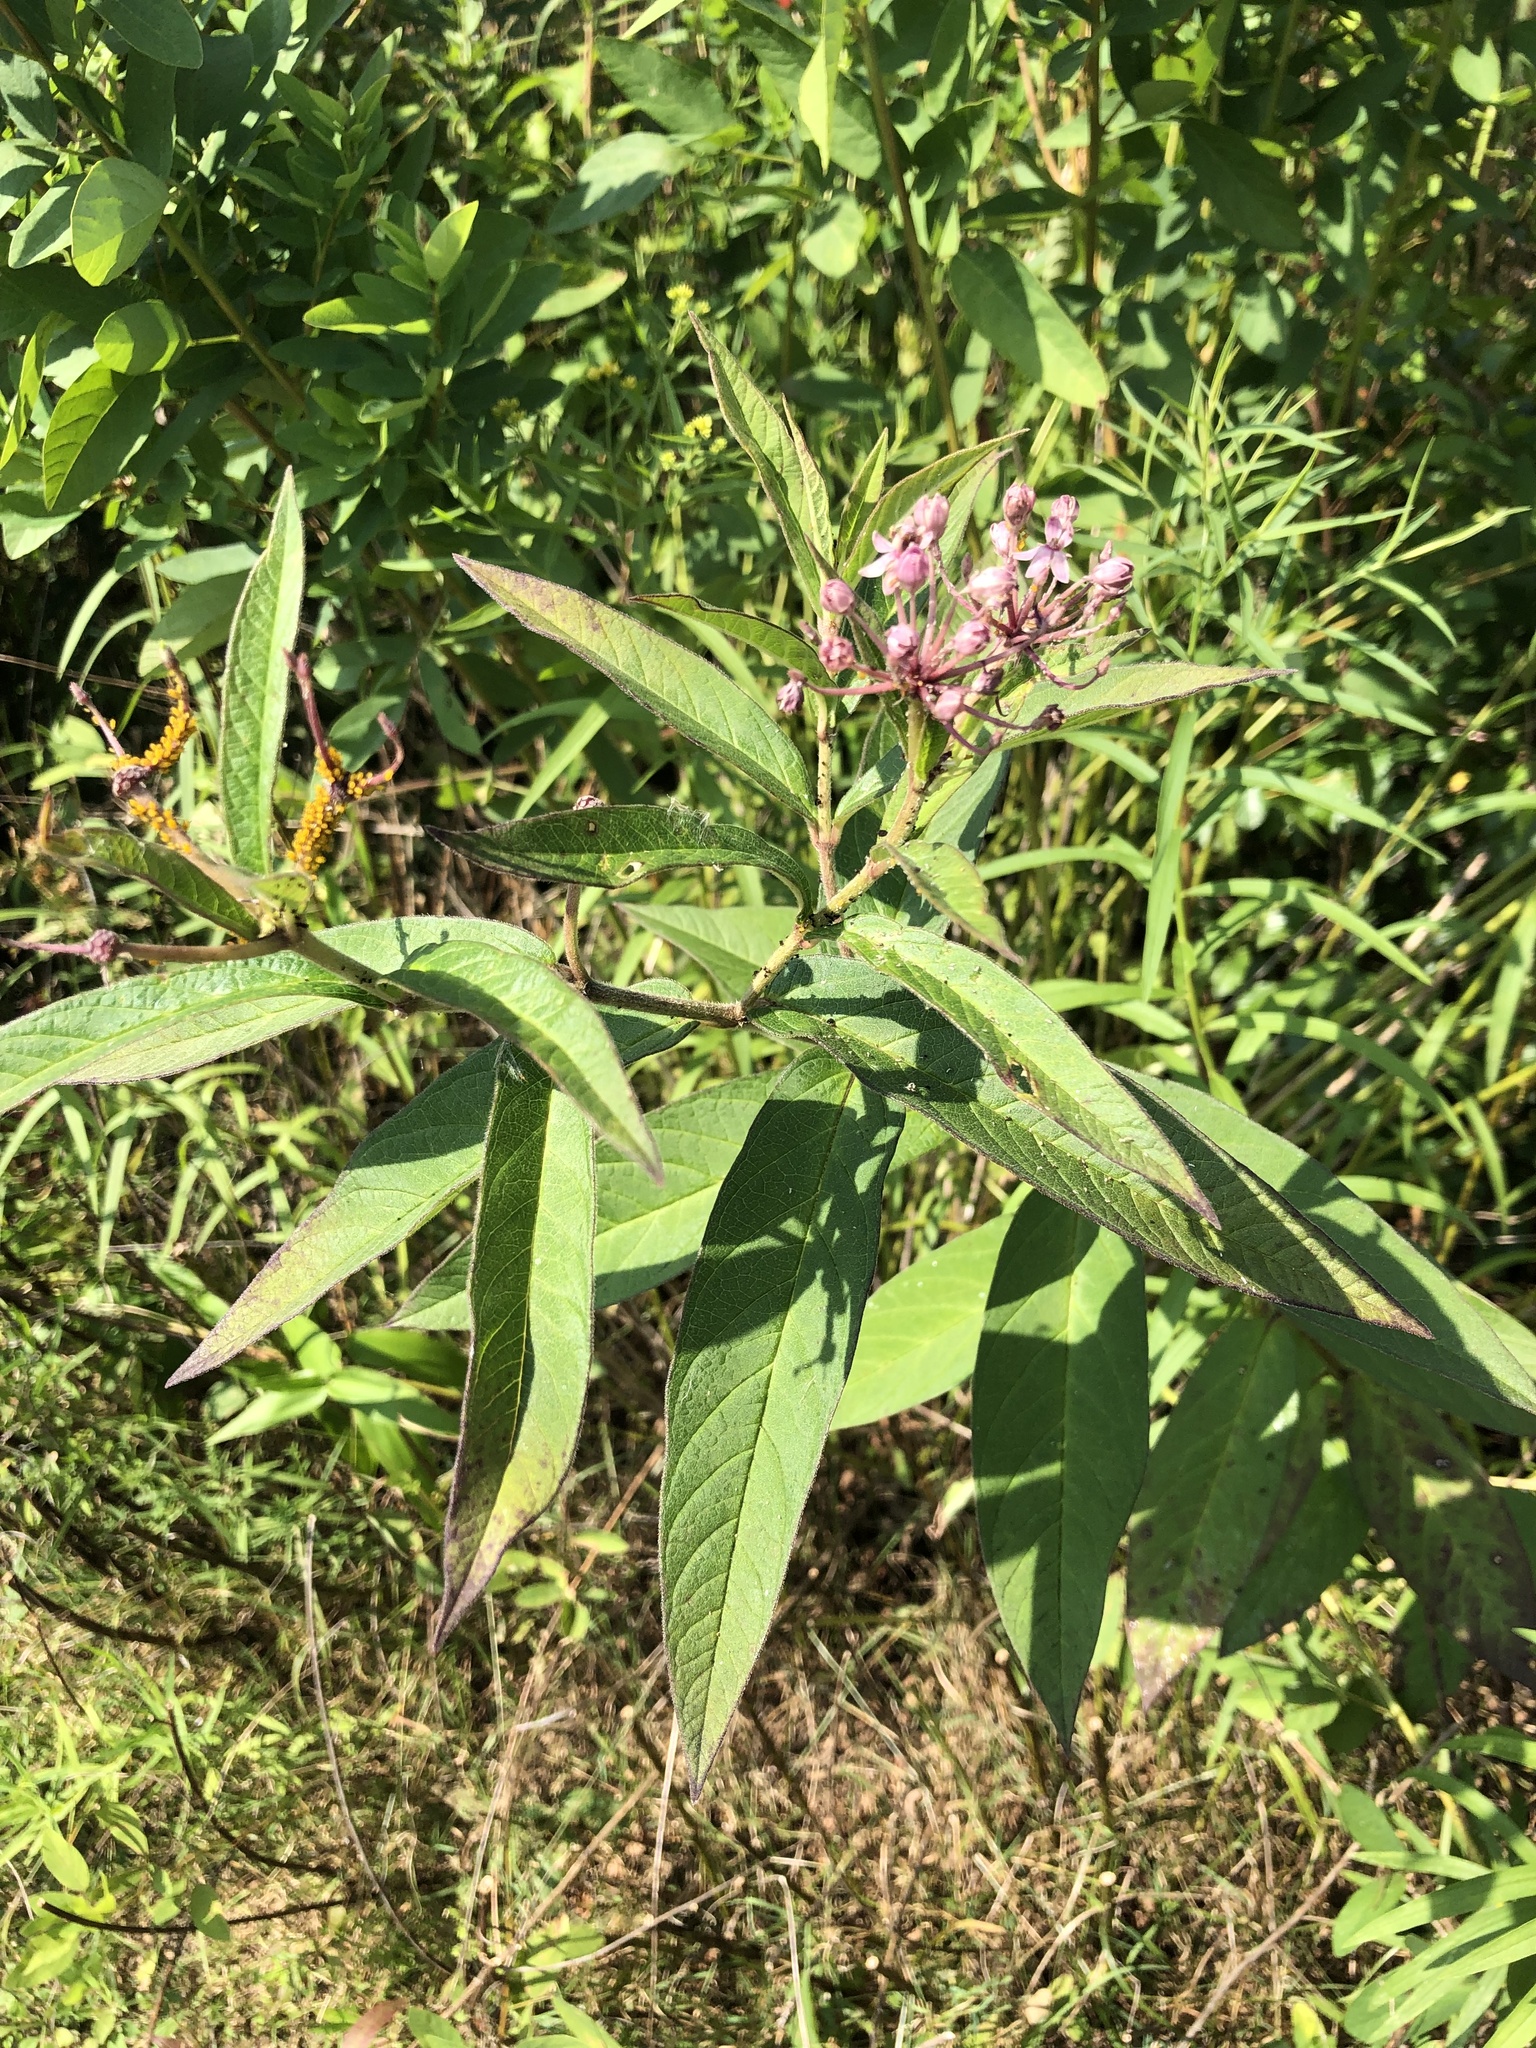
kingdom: Plantae
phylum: Tracheophyta
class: Magnoliopsida
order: Gentianales
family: Apocynaceae
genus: Asclepias
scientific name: Asclepias incarnata
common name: Swamp milkweed
